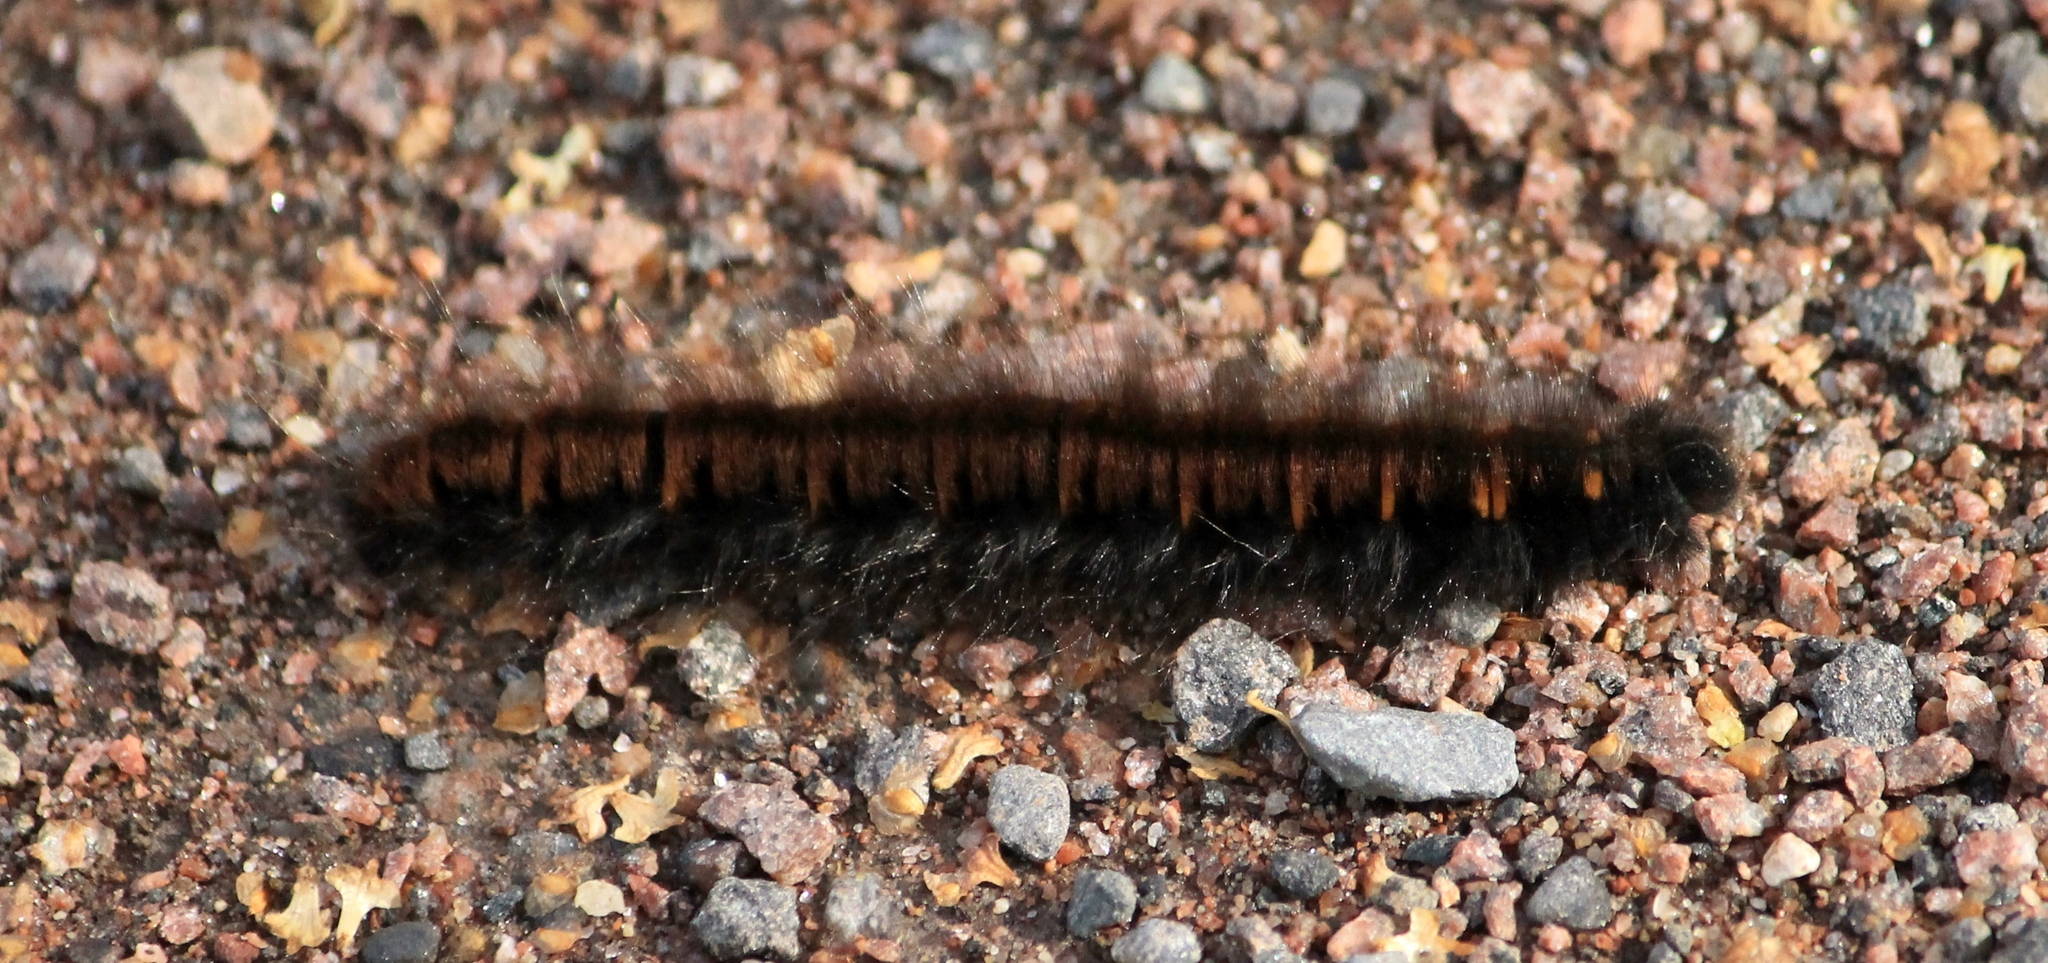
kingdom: Animalia
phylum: Arthropoda
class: Insecta
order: Lepidoptera
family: Lasiocampidae
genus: Macrothylacia
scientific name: Macrothylacia rubi
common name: Fox moth
